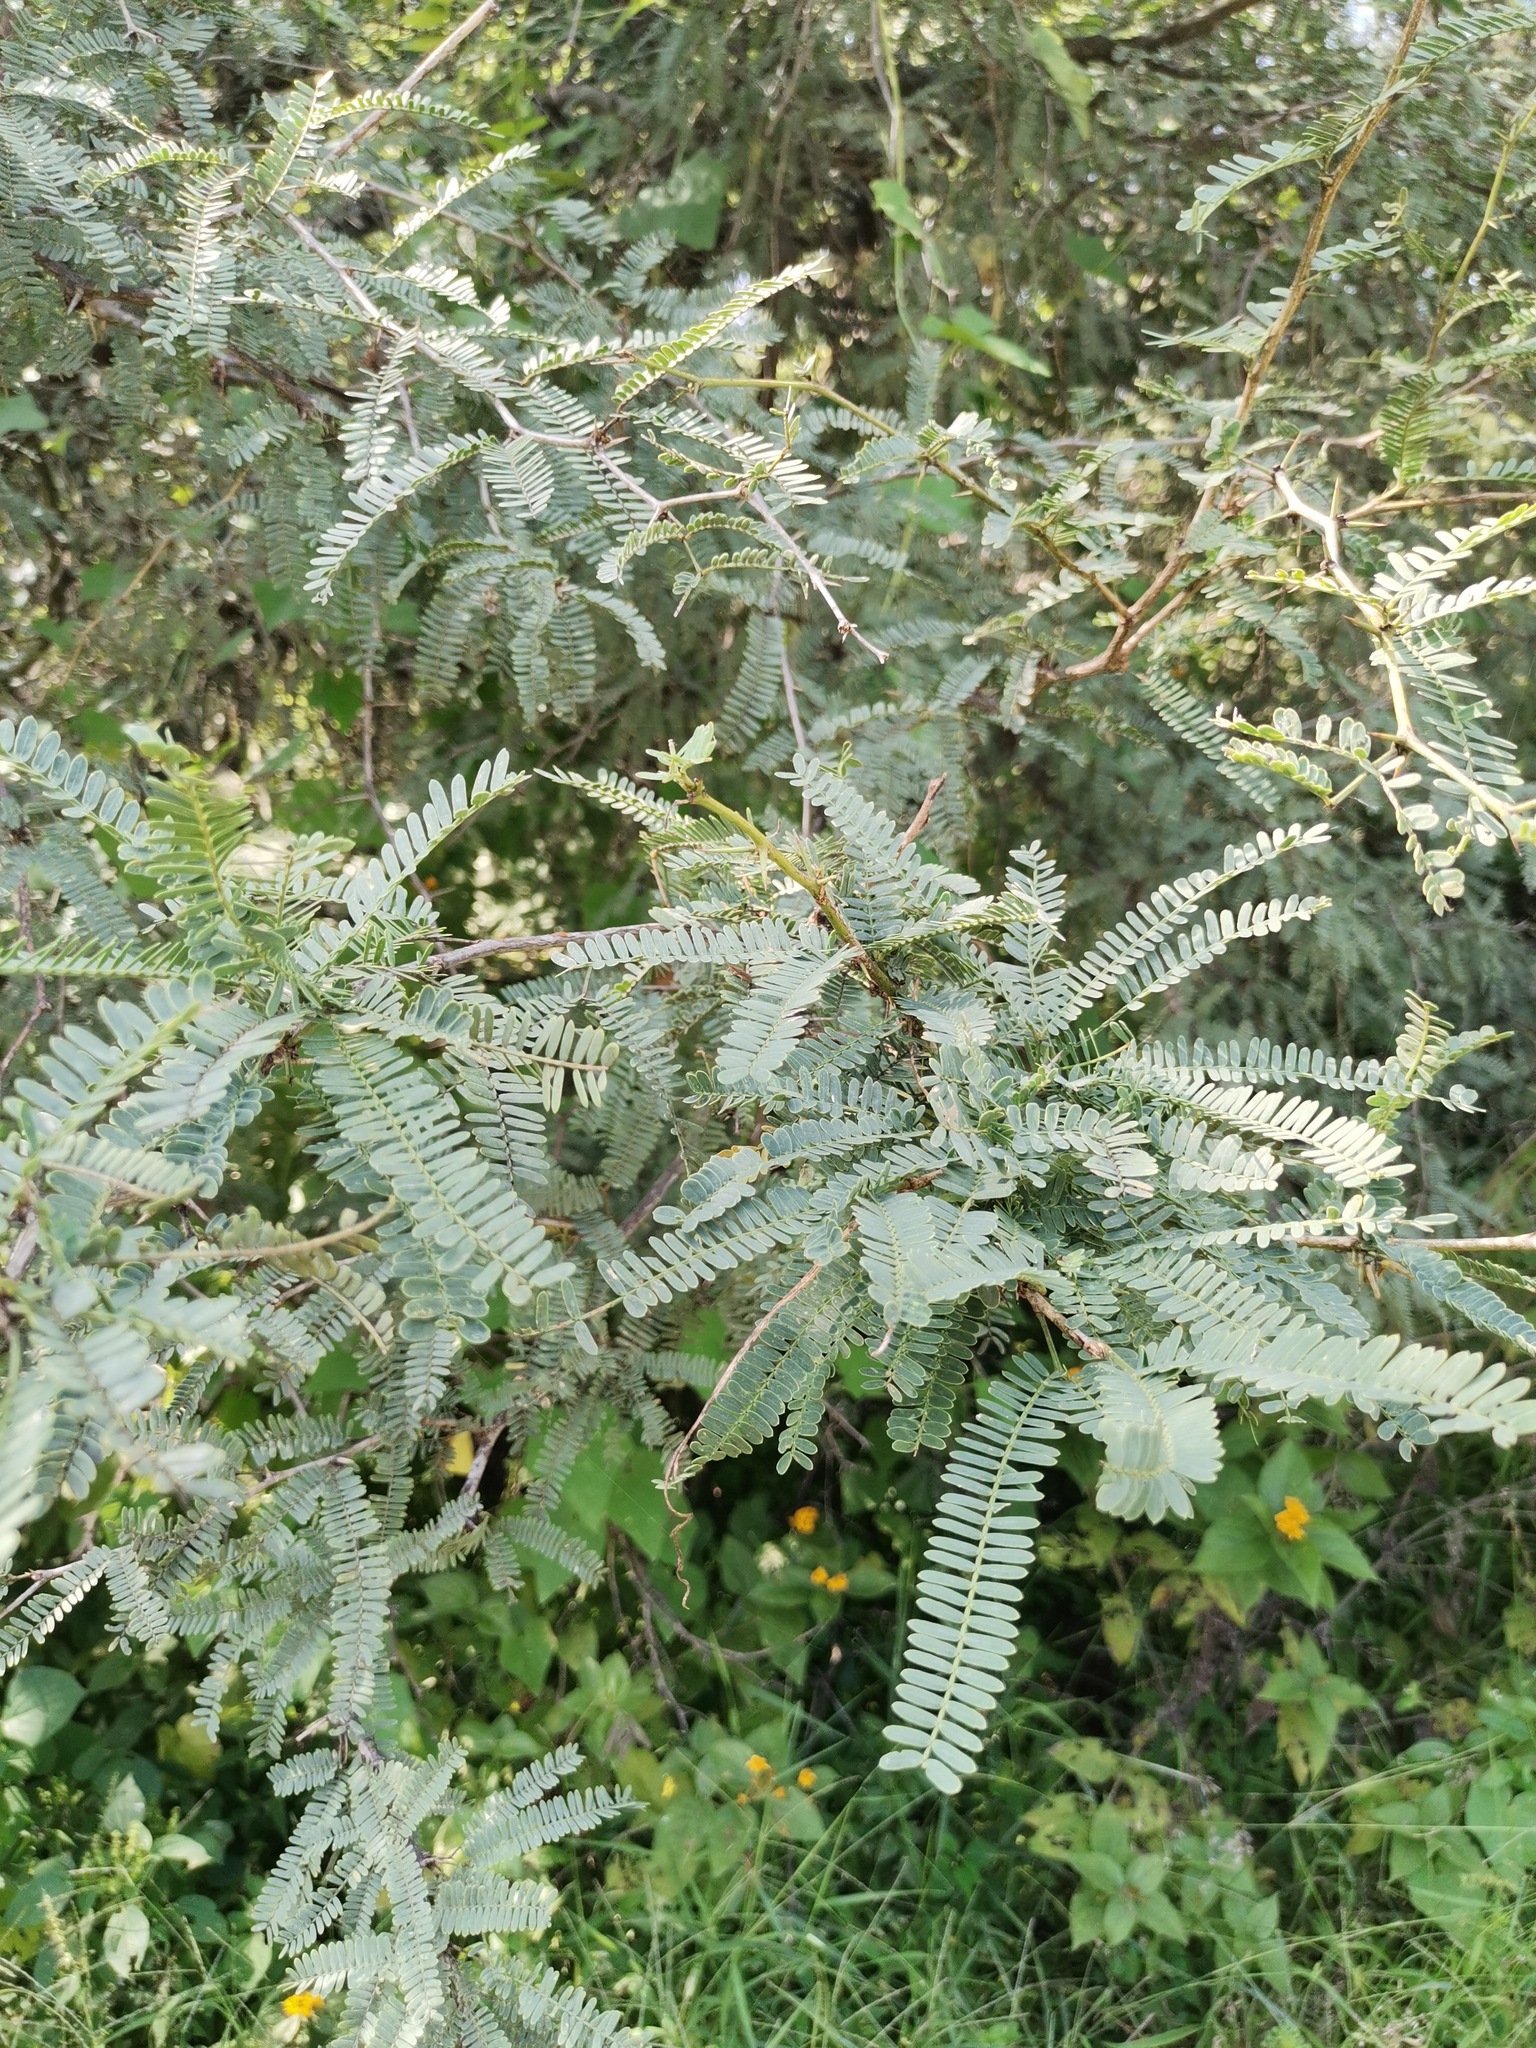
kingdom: Plantae
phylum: Tracheophyta
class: Magnoliopsida
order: Fabales
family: Fabaceae
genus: Prosopis
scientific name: Prosopis laevigata
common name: Smooth mesquite
